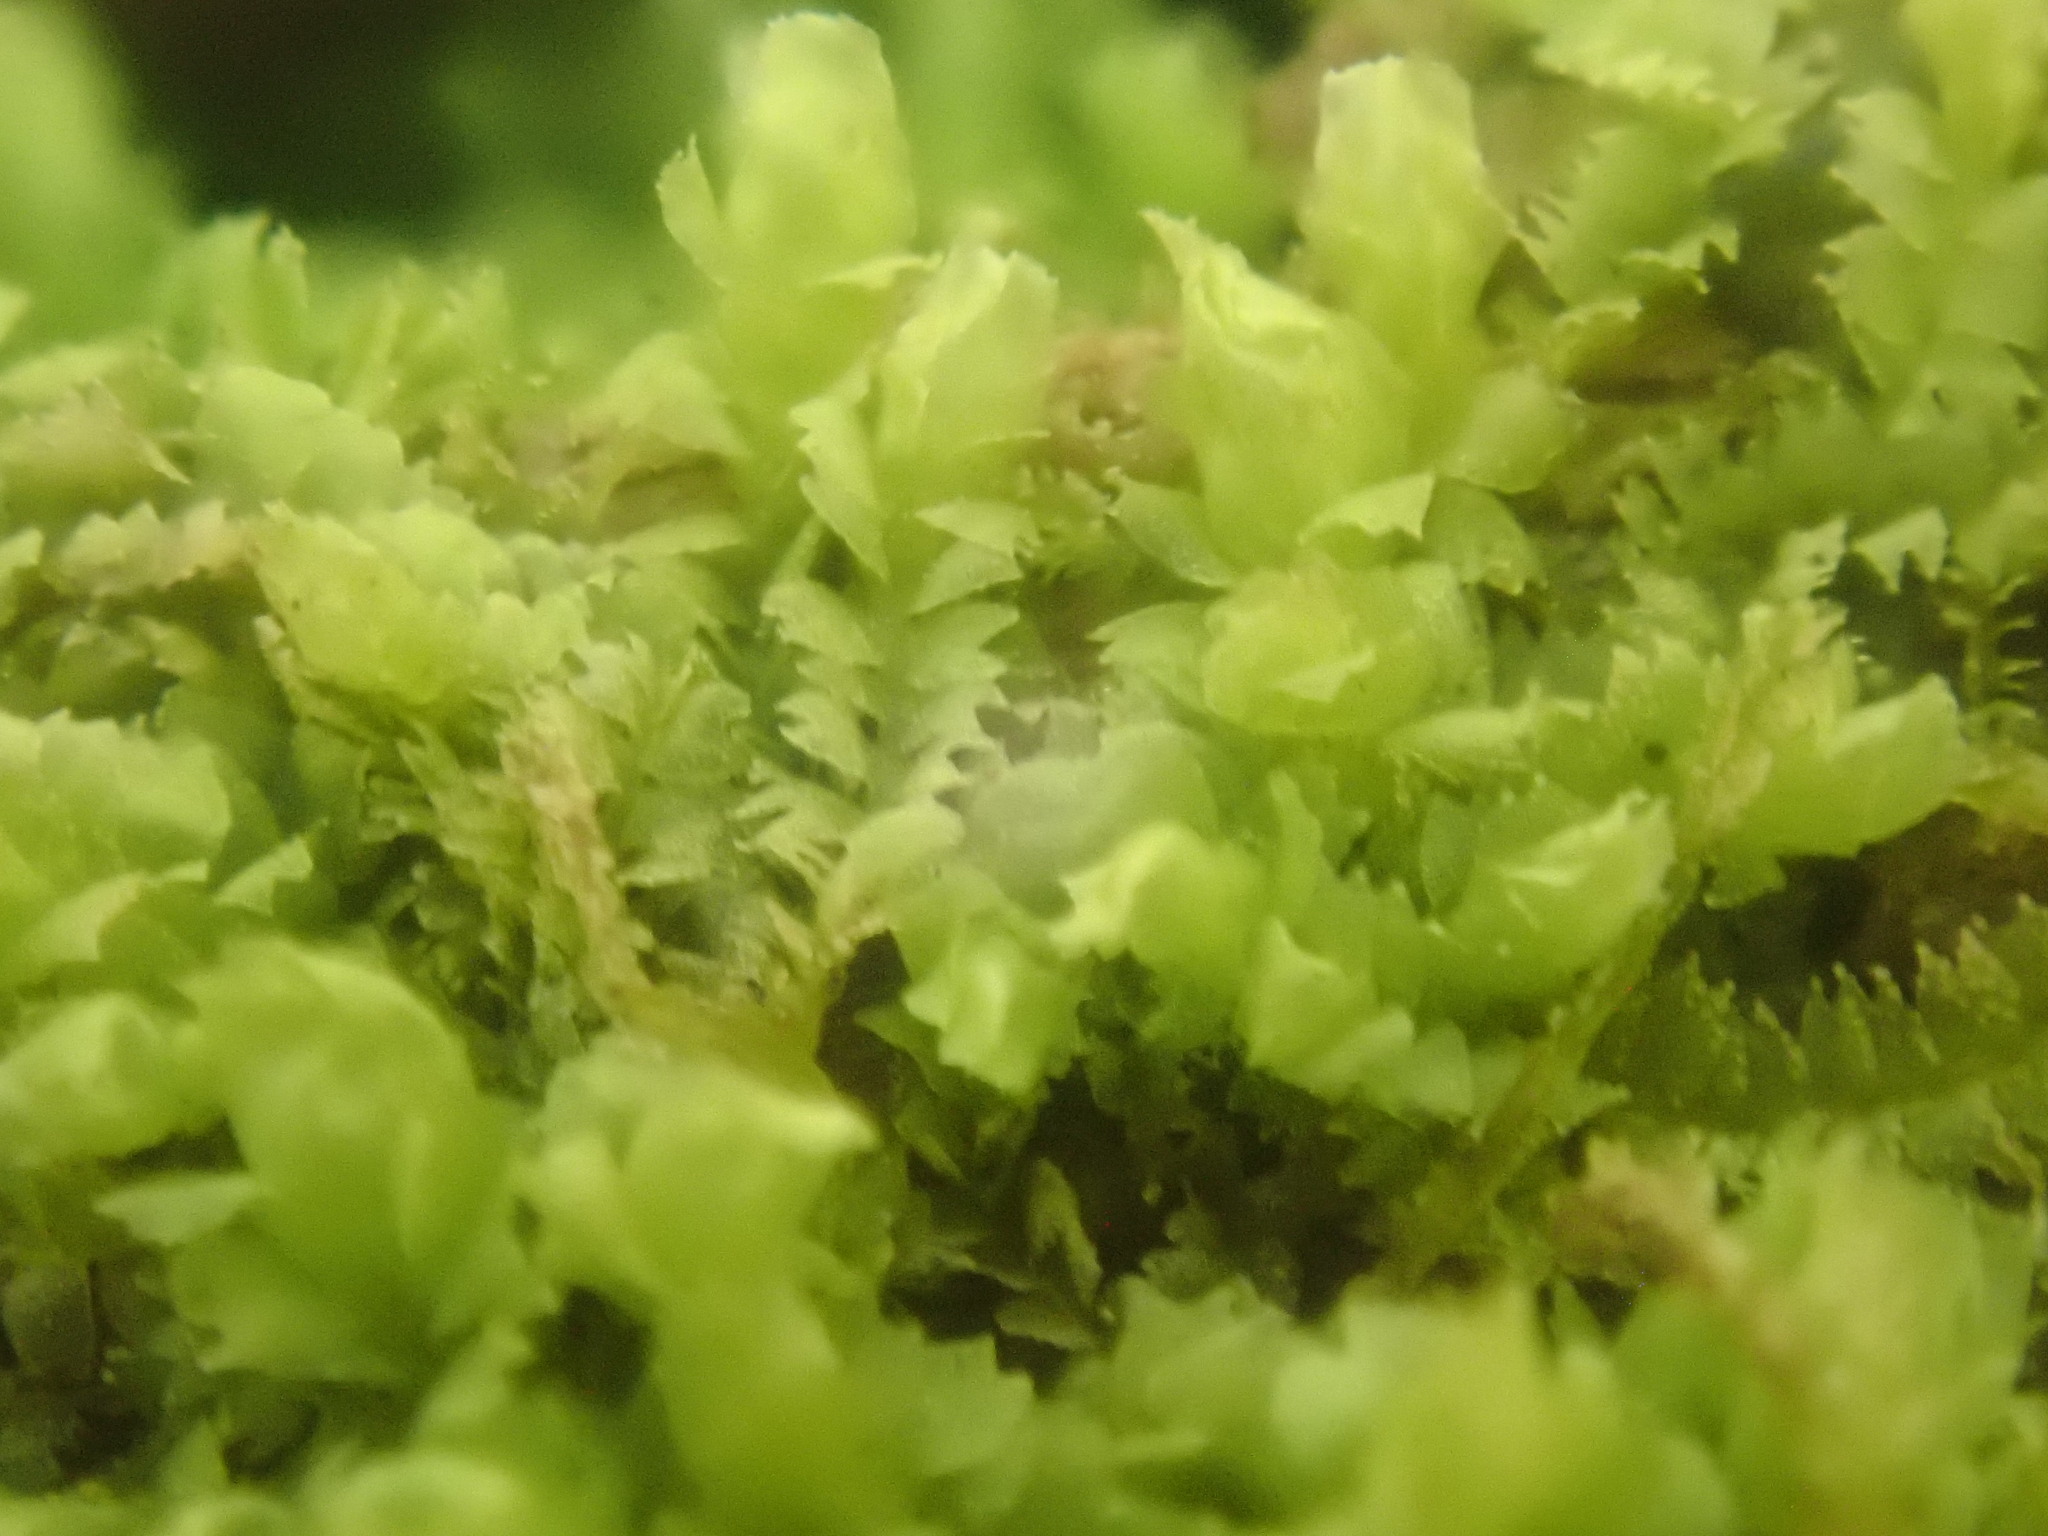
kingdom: Plantae
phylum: Marchantiophyta
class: Jungermanniopsida
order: Jungermanniales
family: Lophocoleaceae
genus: Lophocolea
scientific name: Lophocolea heterophylla
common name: Variable-leaved crestwort
